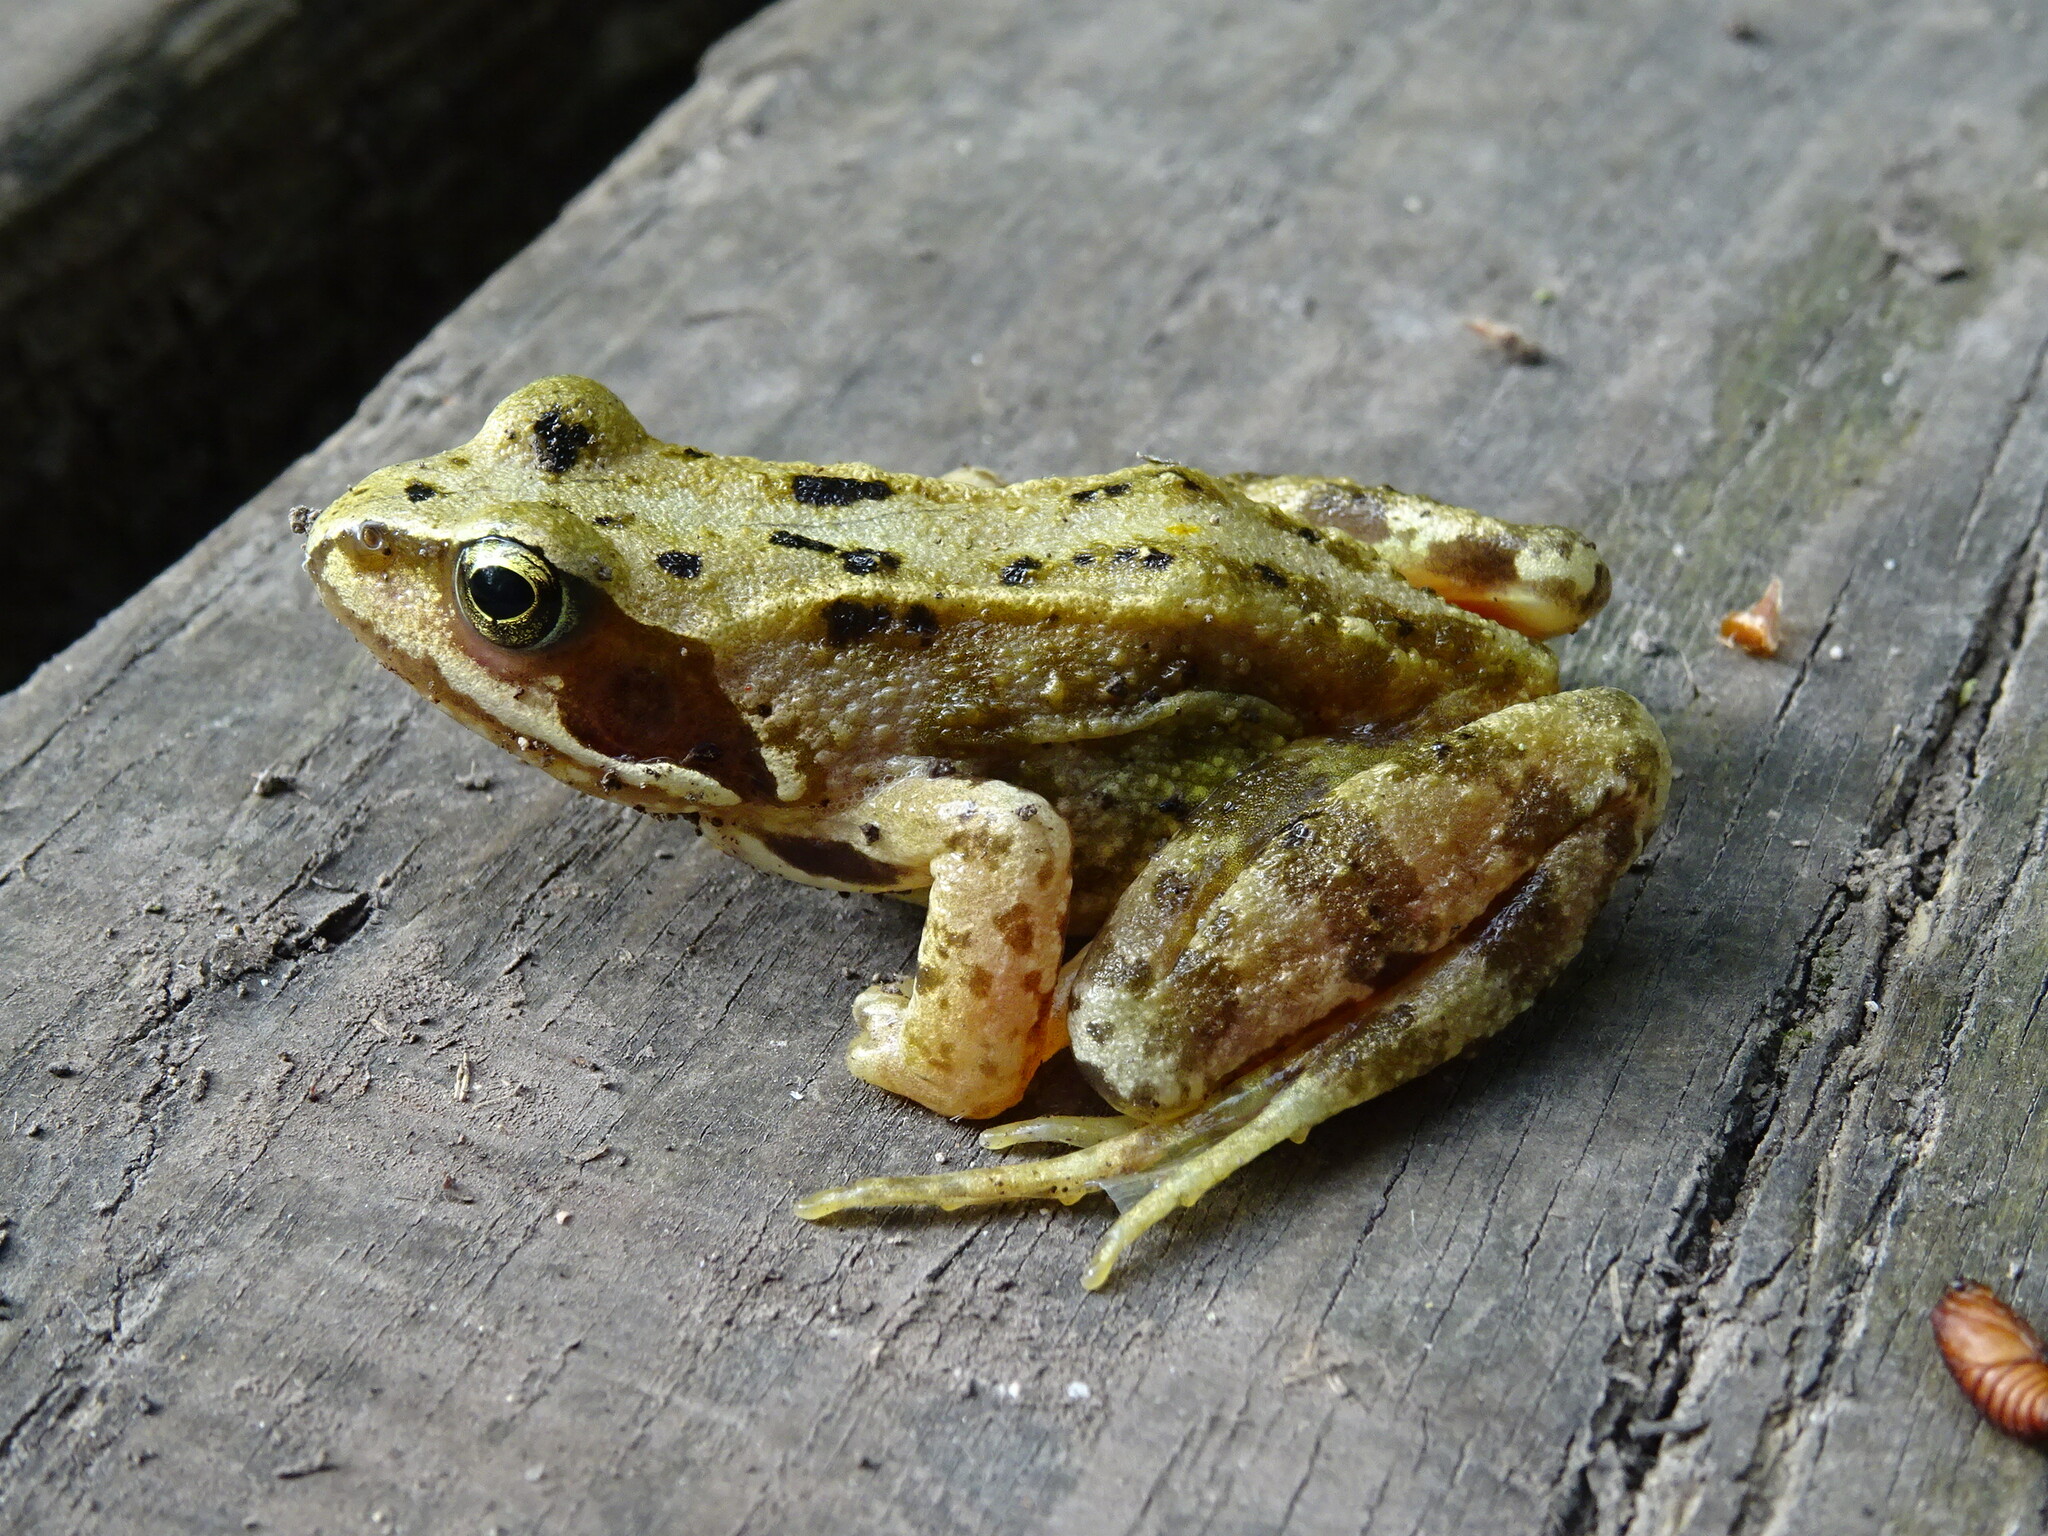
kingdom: Animalia
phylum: Chordata
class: Amphibia
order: Anura
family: Ranidae
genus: Rana
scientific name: Rana temporaria
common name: Common frog
